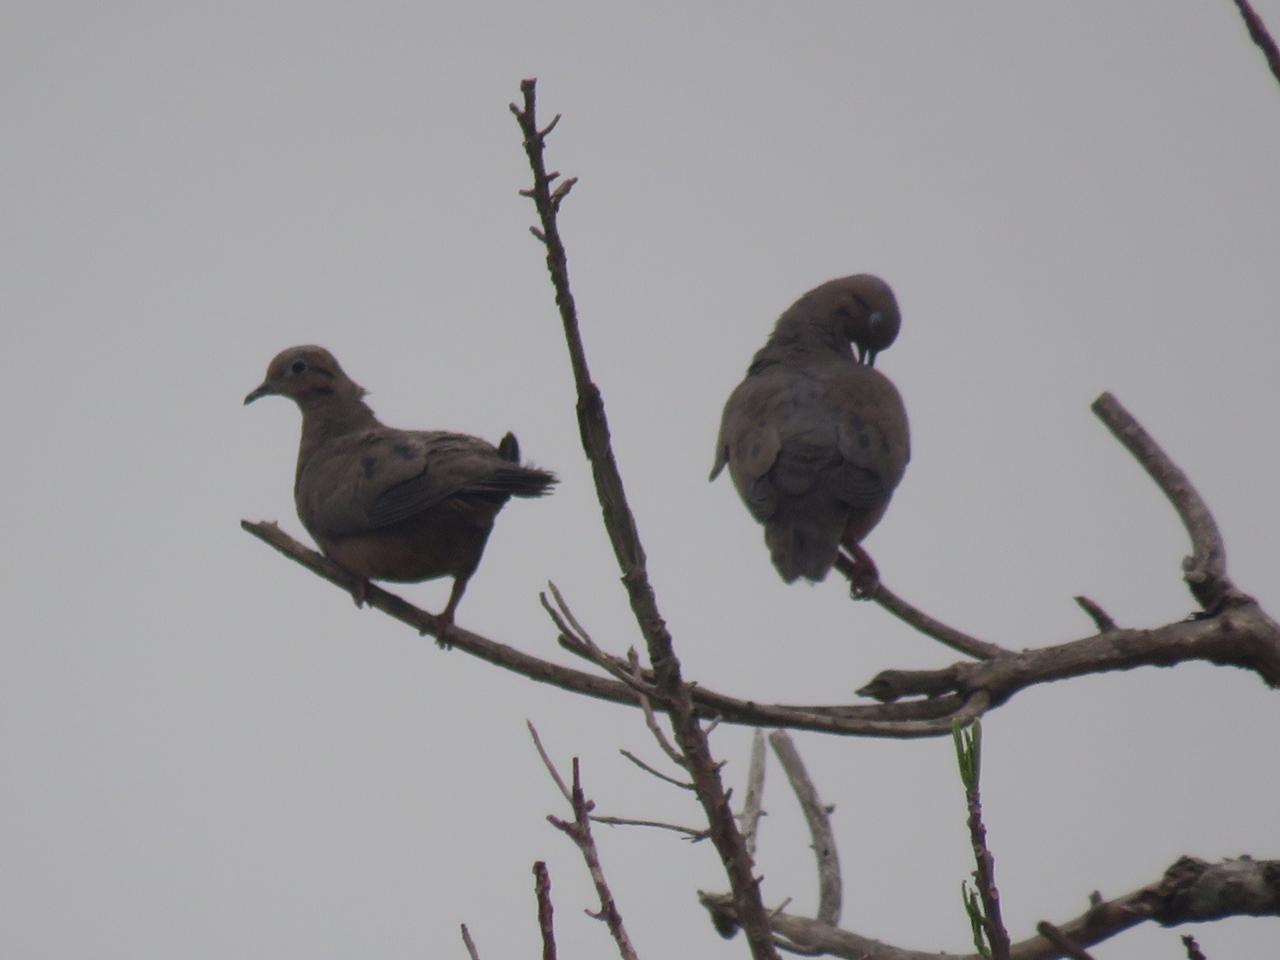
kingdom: Animalia
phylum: Chordata
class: Aves
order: Columbiformes
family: Columbidae
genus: Zenaida
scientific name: Zenaida auriculata
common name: Eared dove
